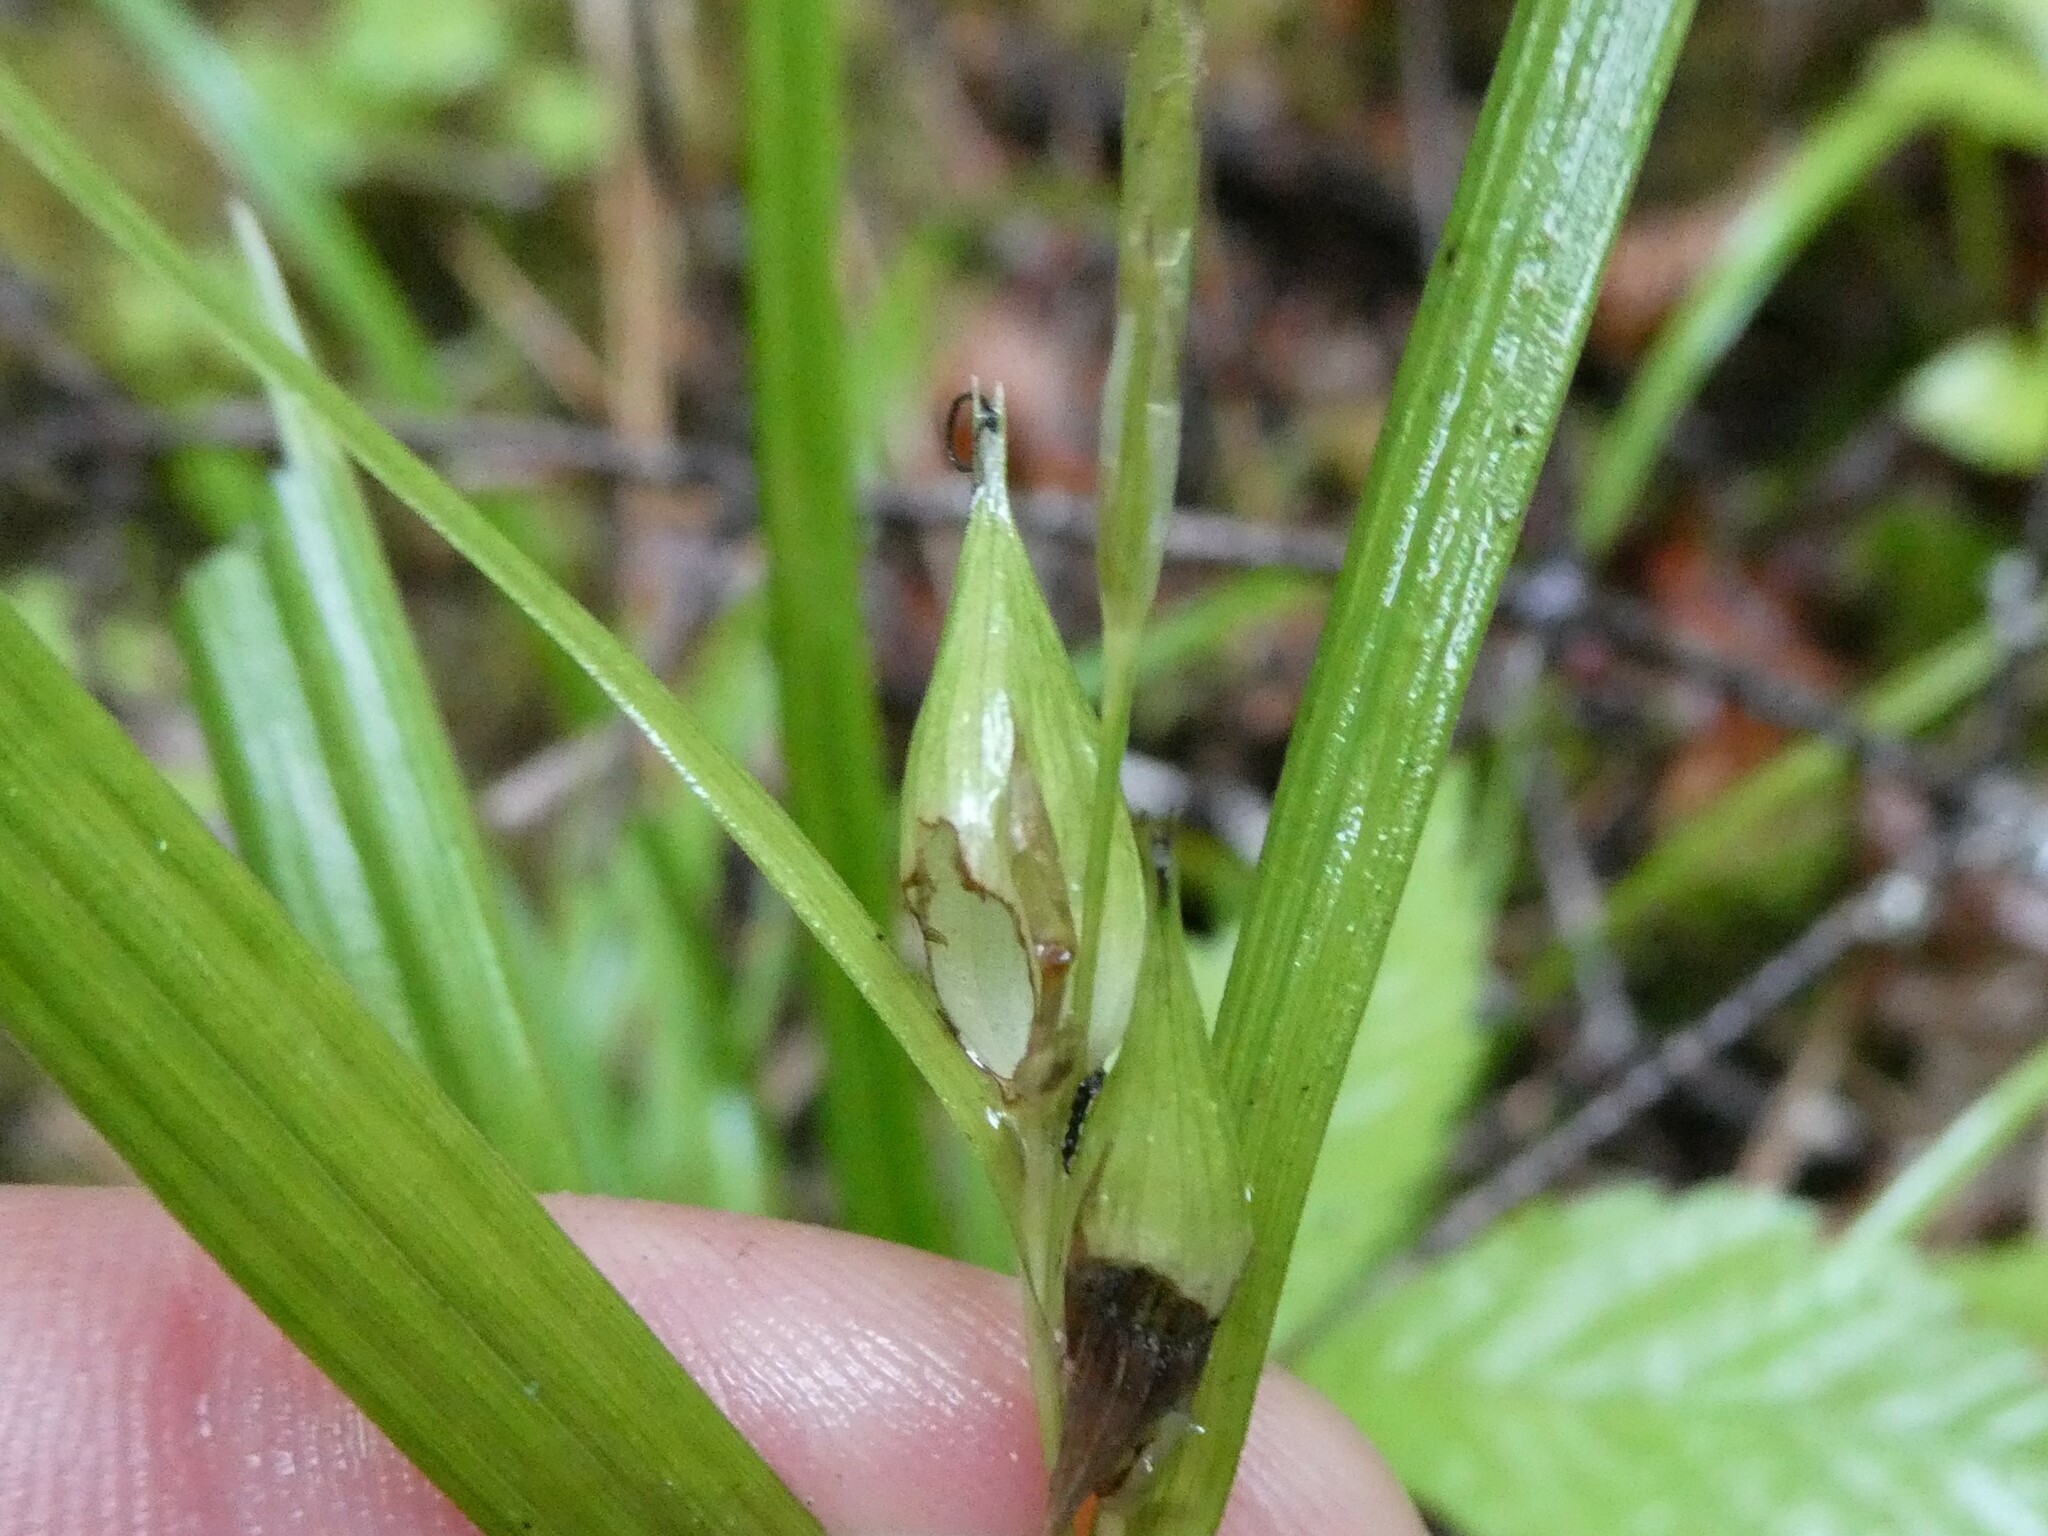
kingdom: Plantae
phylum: Tracheophyta
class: Liliopsida
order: Poales
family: Cyperaceae
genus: Carex
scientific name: Carex intumescens
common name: Greater bladder sedge
